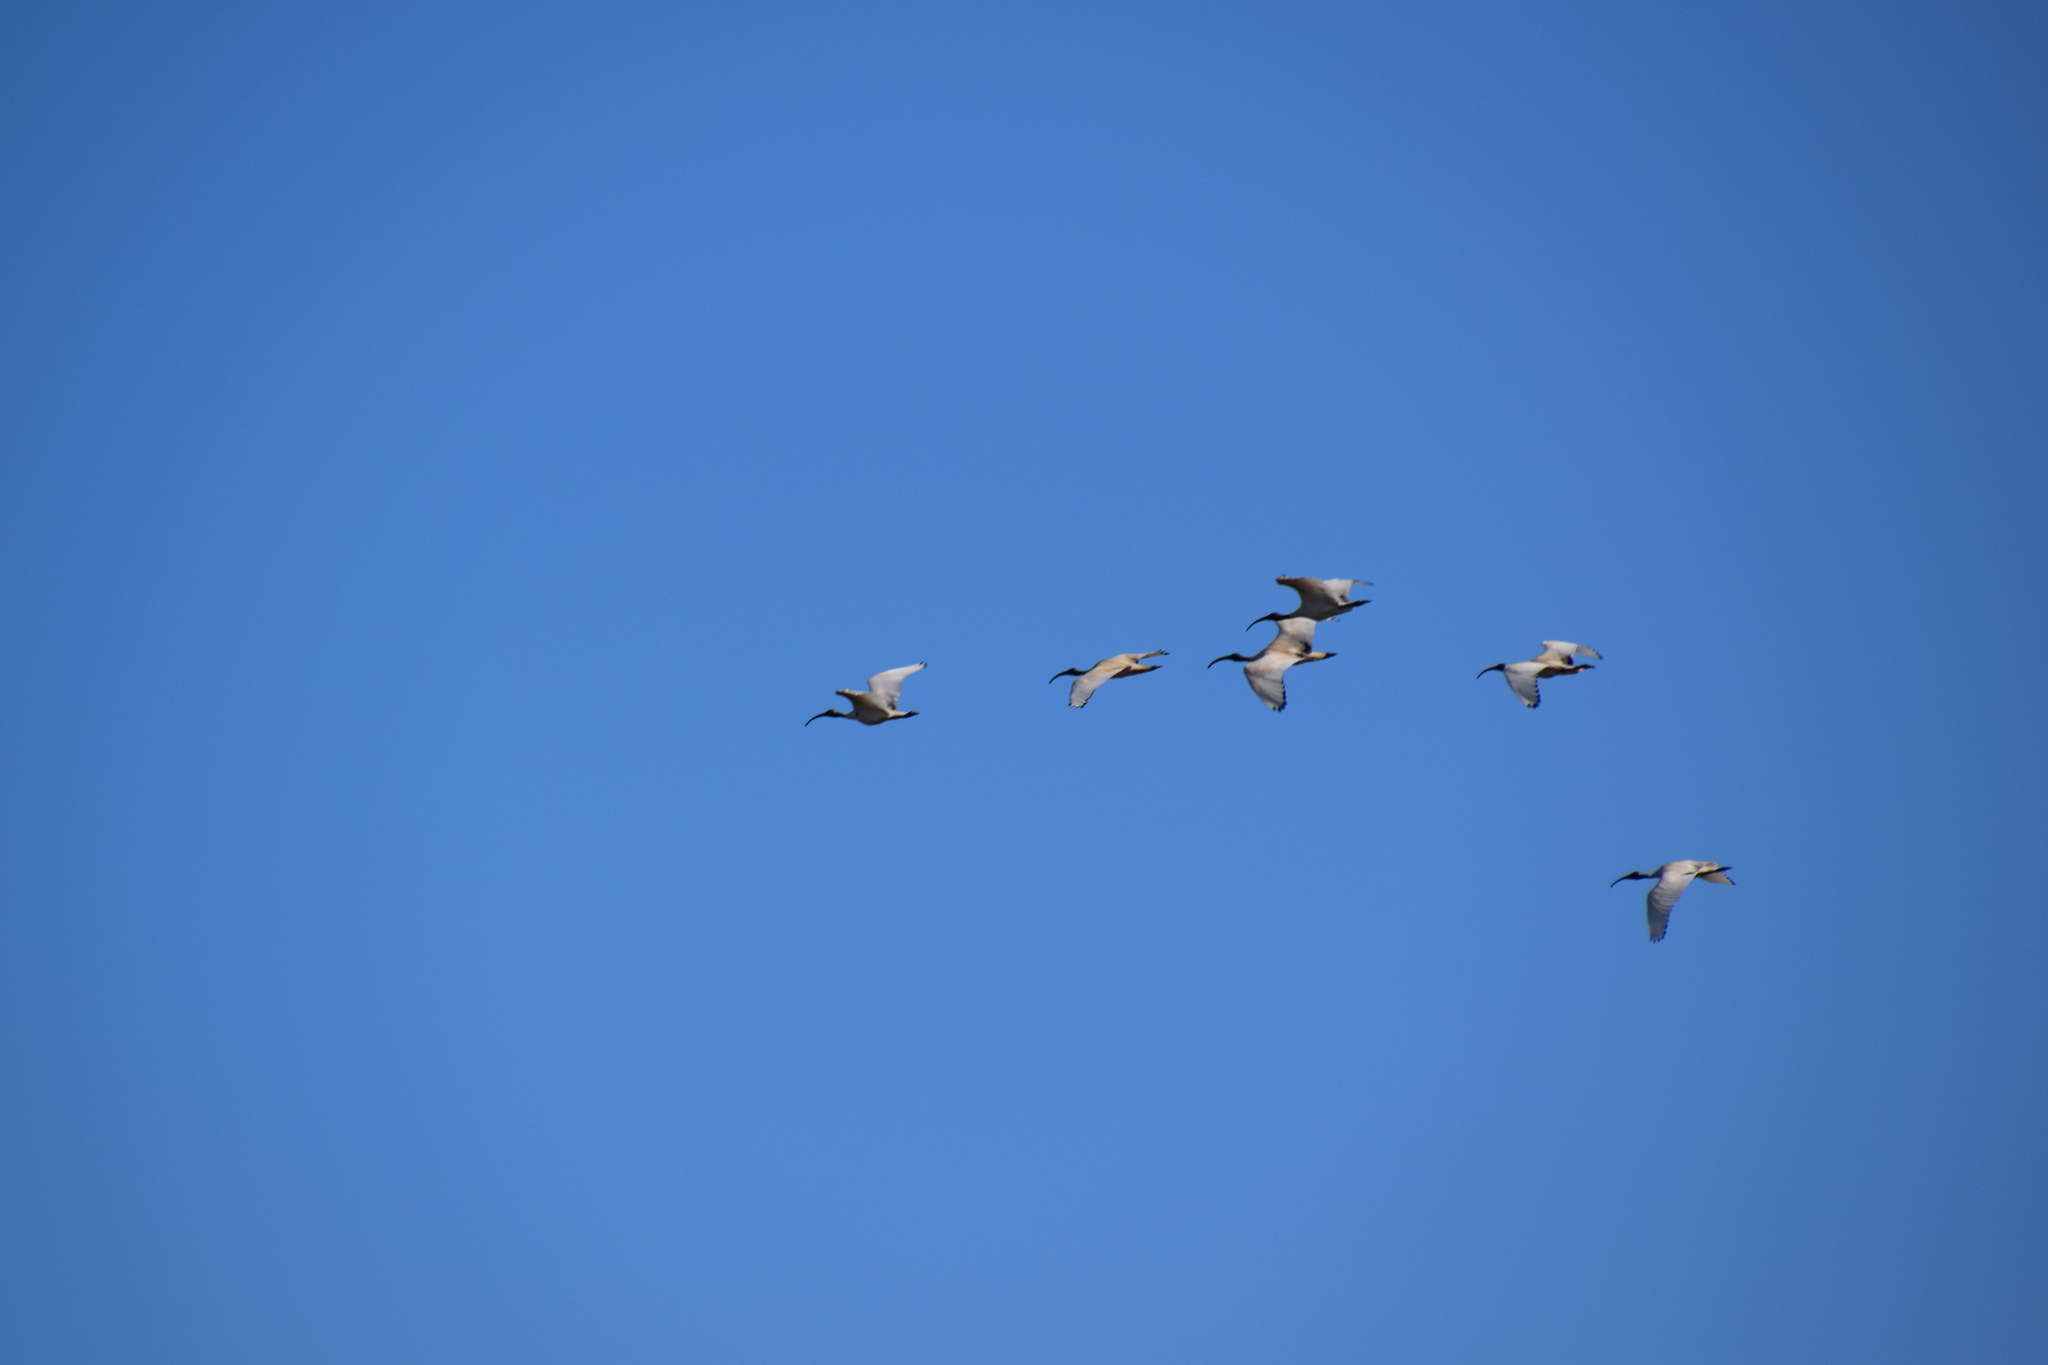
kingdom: Animalia
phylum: Chordata
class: Aves
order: Pelecaniformes
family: Threskiornithidae
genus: Threskiornis
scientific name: Threskiornis molucca
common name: Australian white ibis
